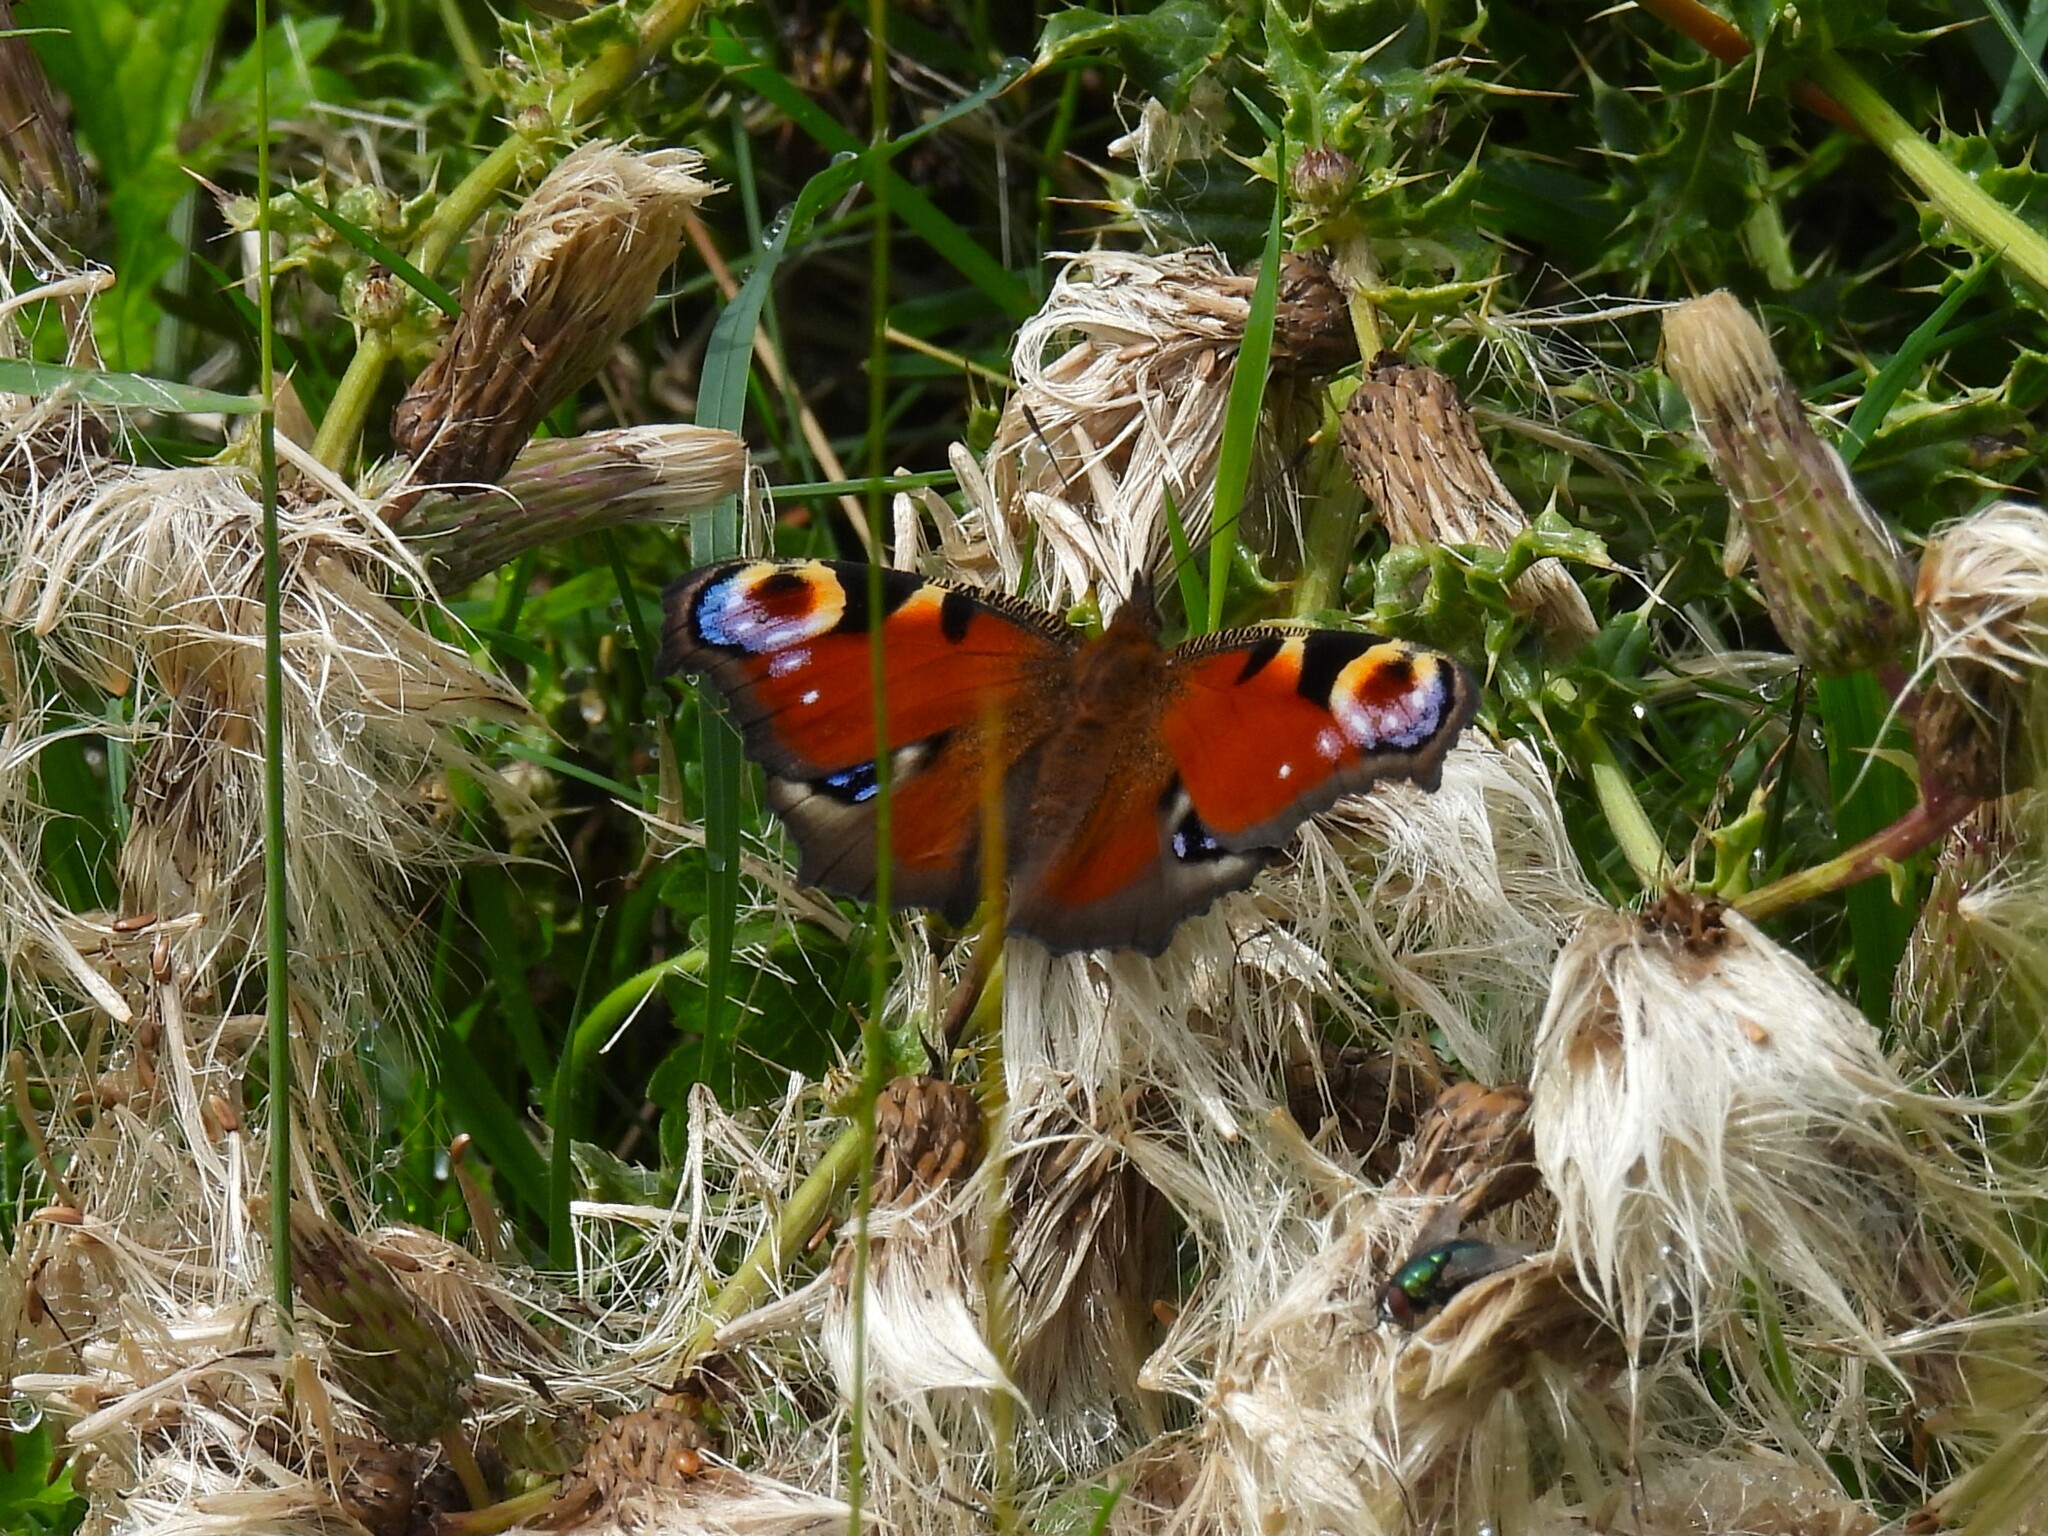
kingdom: Animalia
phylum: Arthropoda
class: Insecta
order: Lepidoptera
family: Nymphalidae
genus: Aglais
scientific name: Aglais io
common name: Peacock
